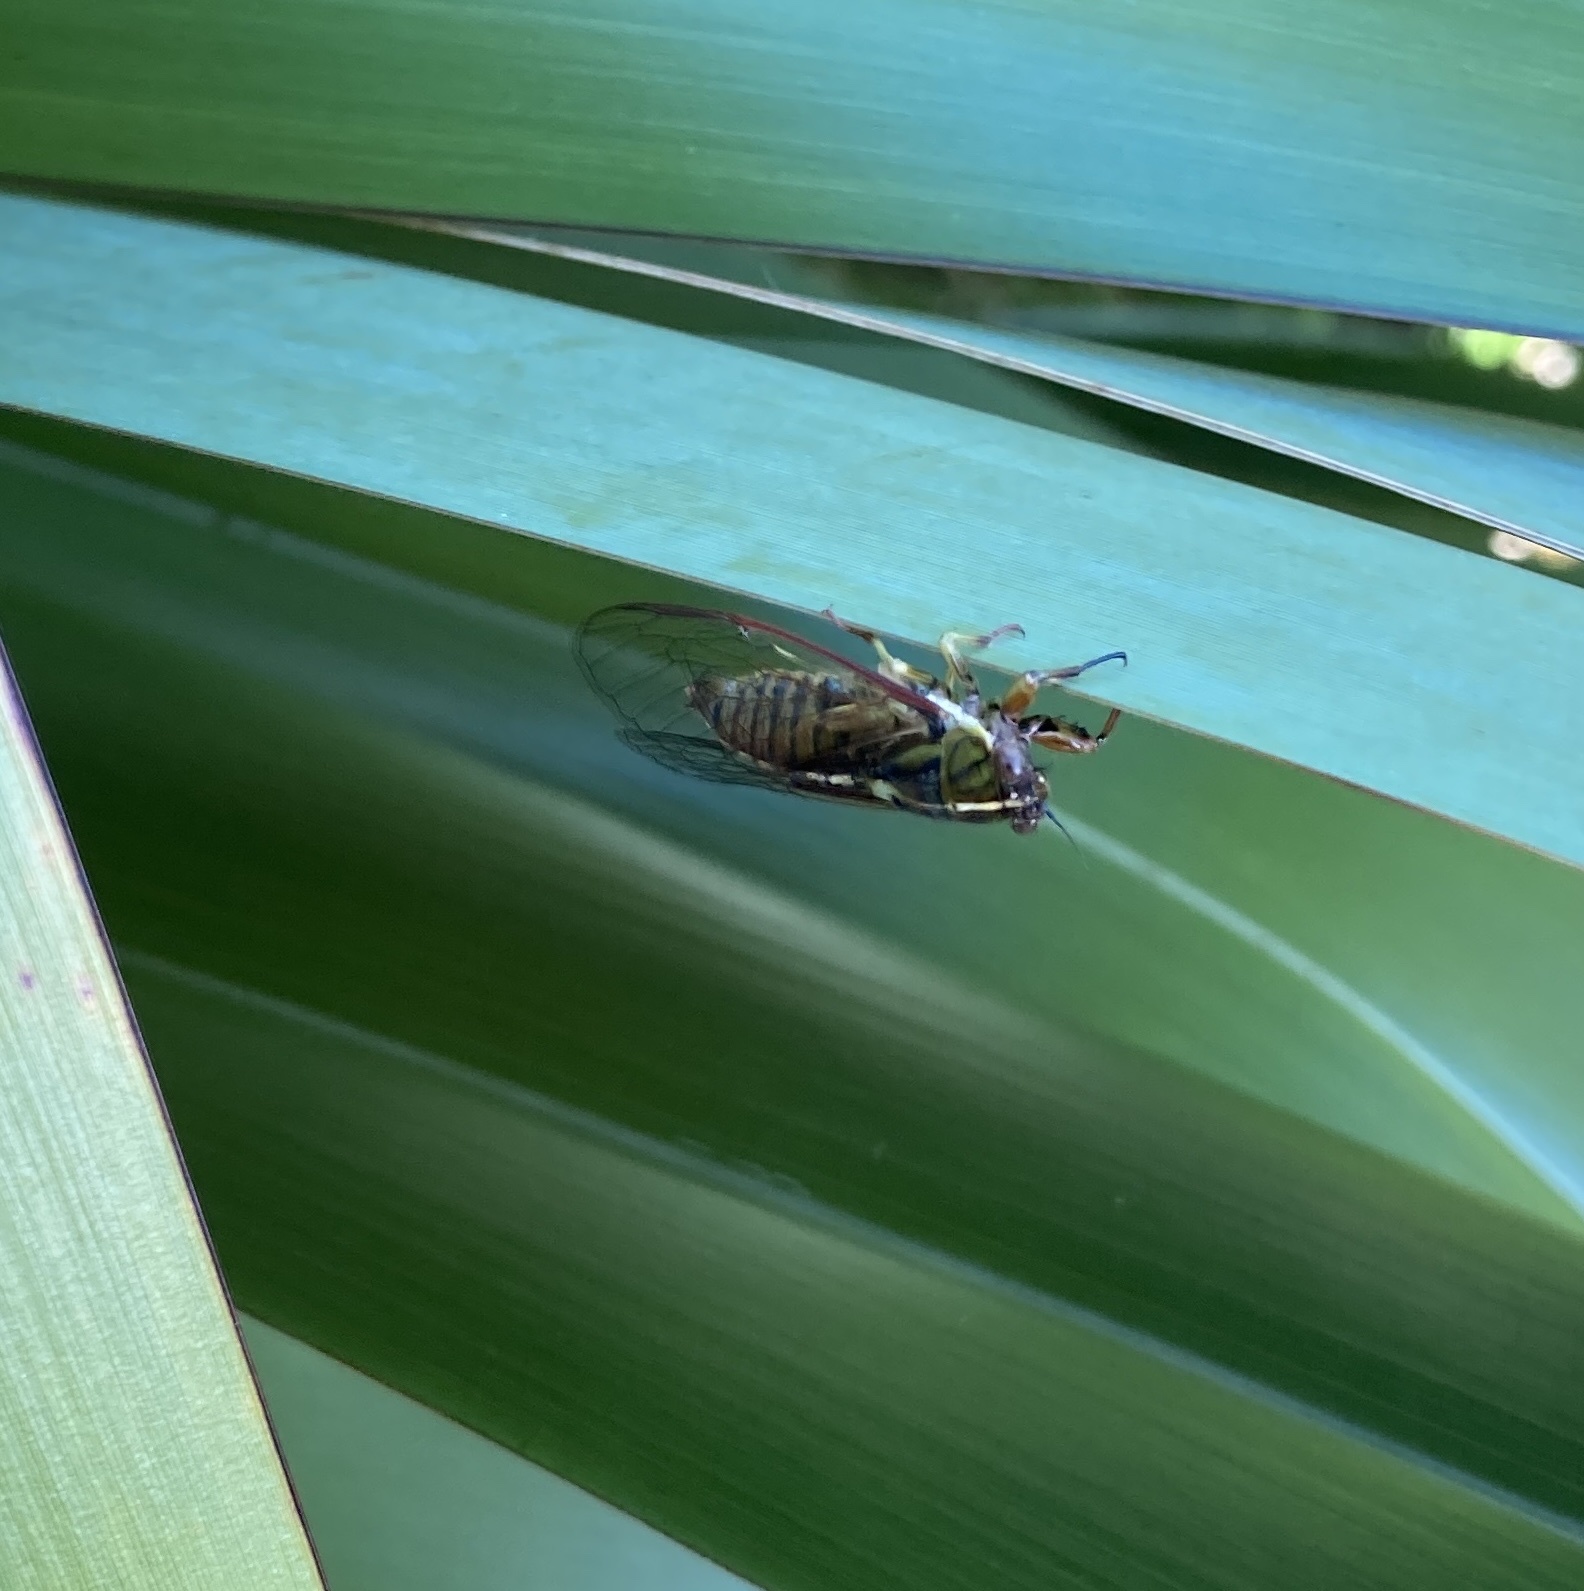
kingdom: Animalia
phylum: Arthropoda
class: Insecta
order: Hemiptera
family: Cicadidae
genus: Kikihia
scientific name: Kikihia muta
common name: Variable cicada
